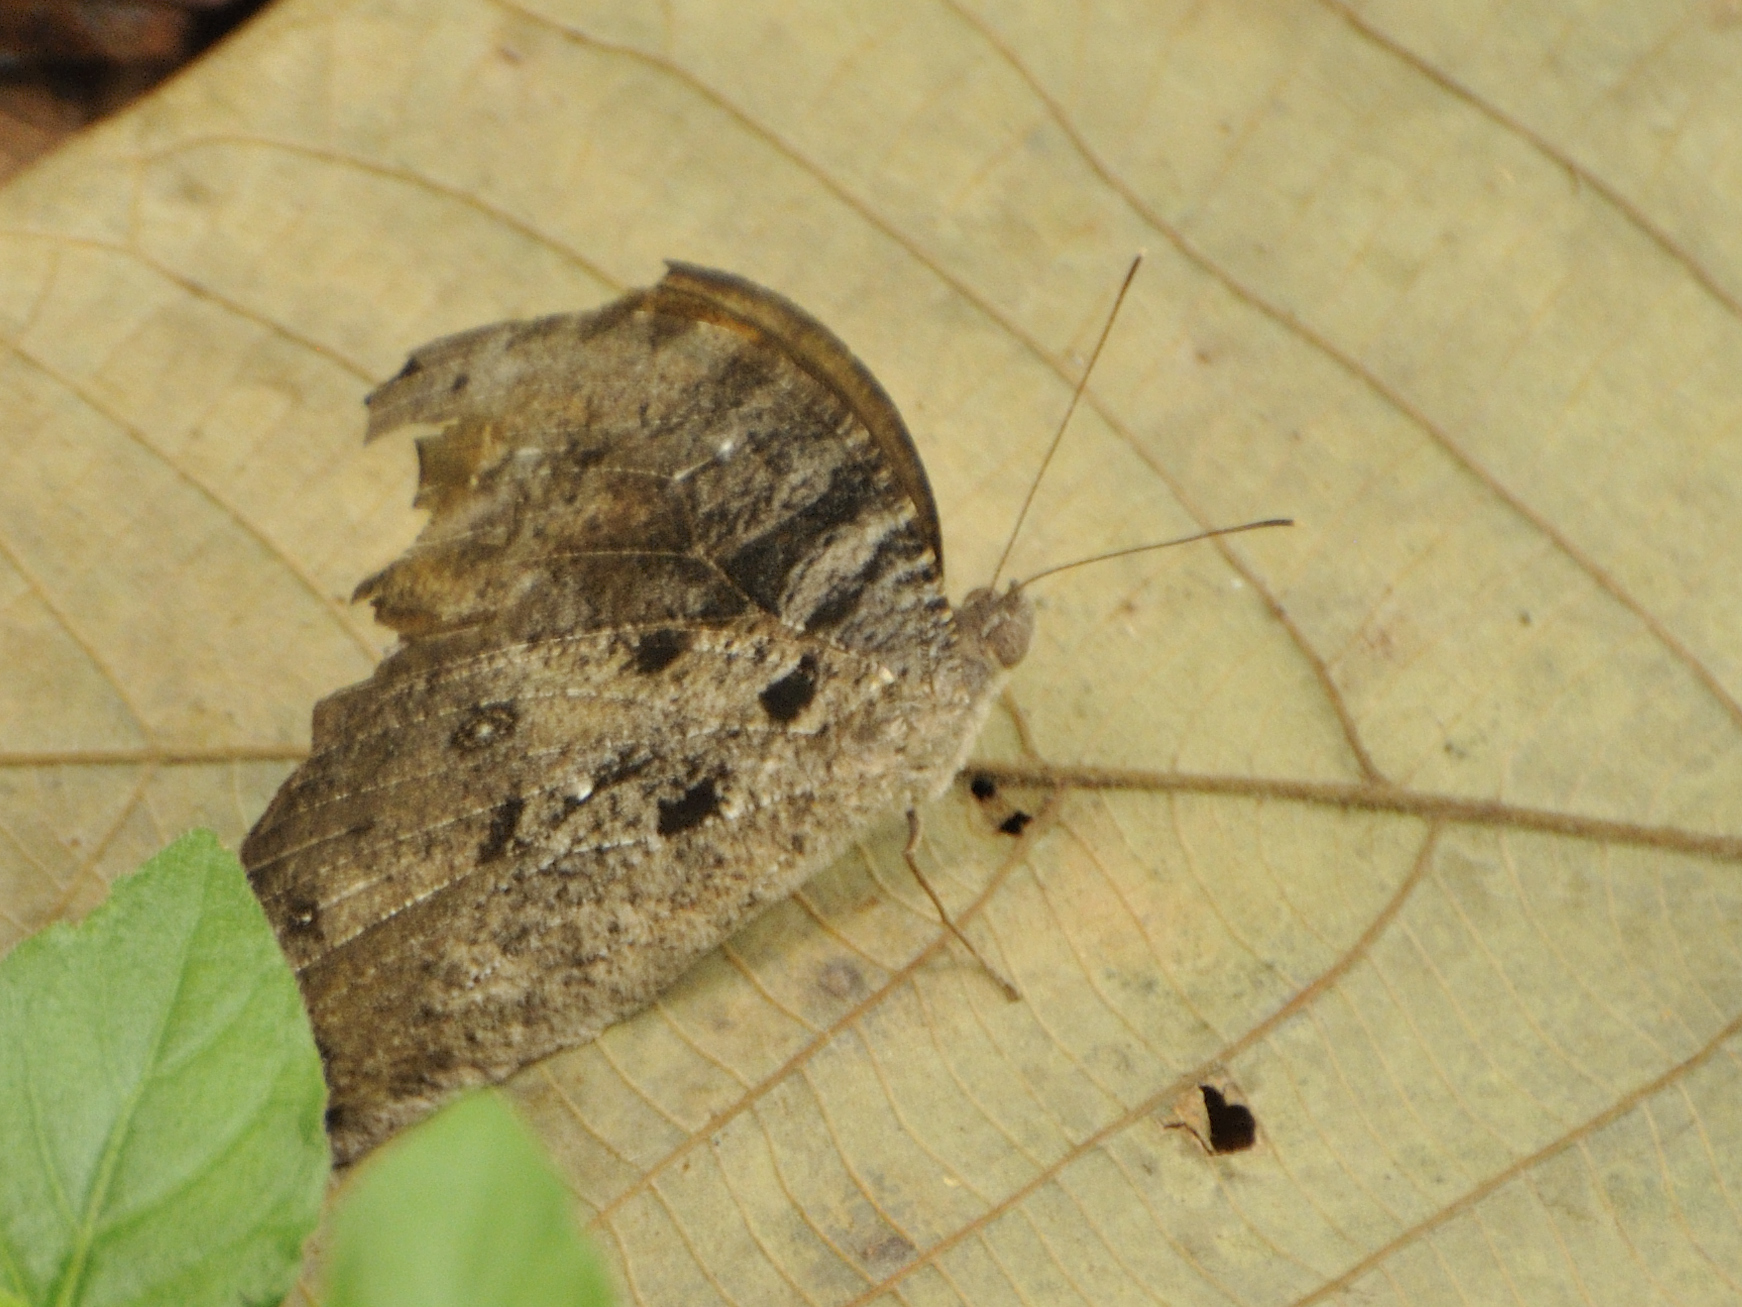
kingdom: Animalia
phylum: Arthropoda
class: Insecta
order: Lepidoptera
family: Nymphalidae
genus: Melanitis
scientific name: Melanitis leda
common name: Twilight brown
